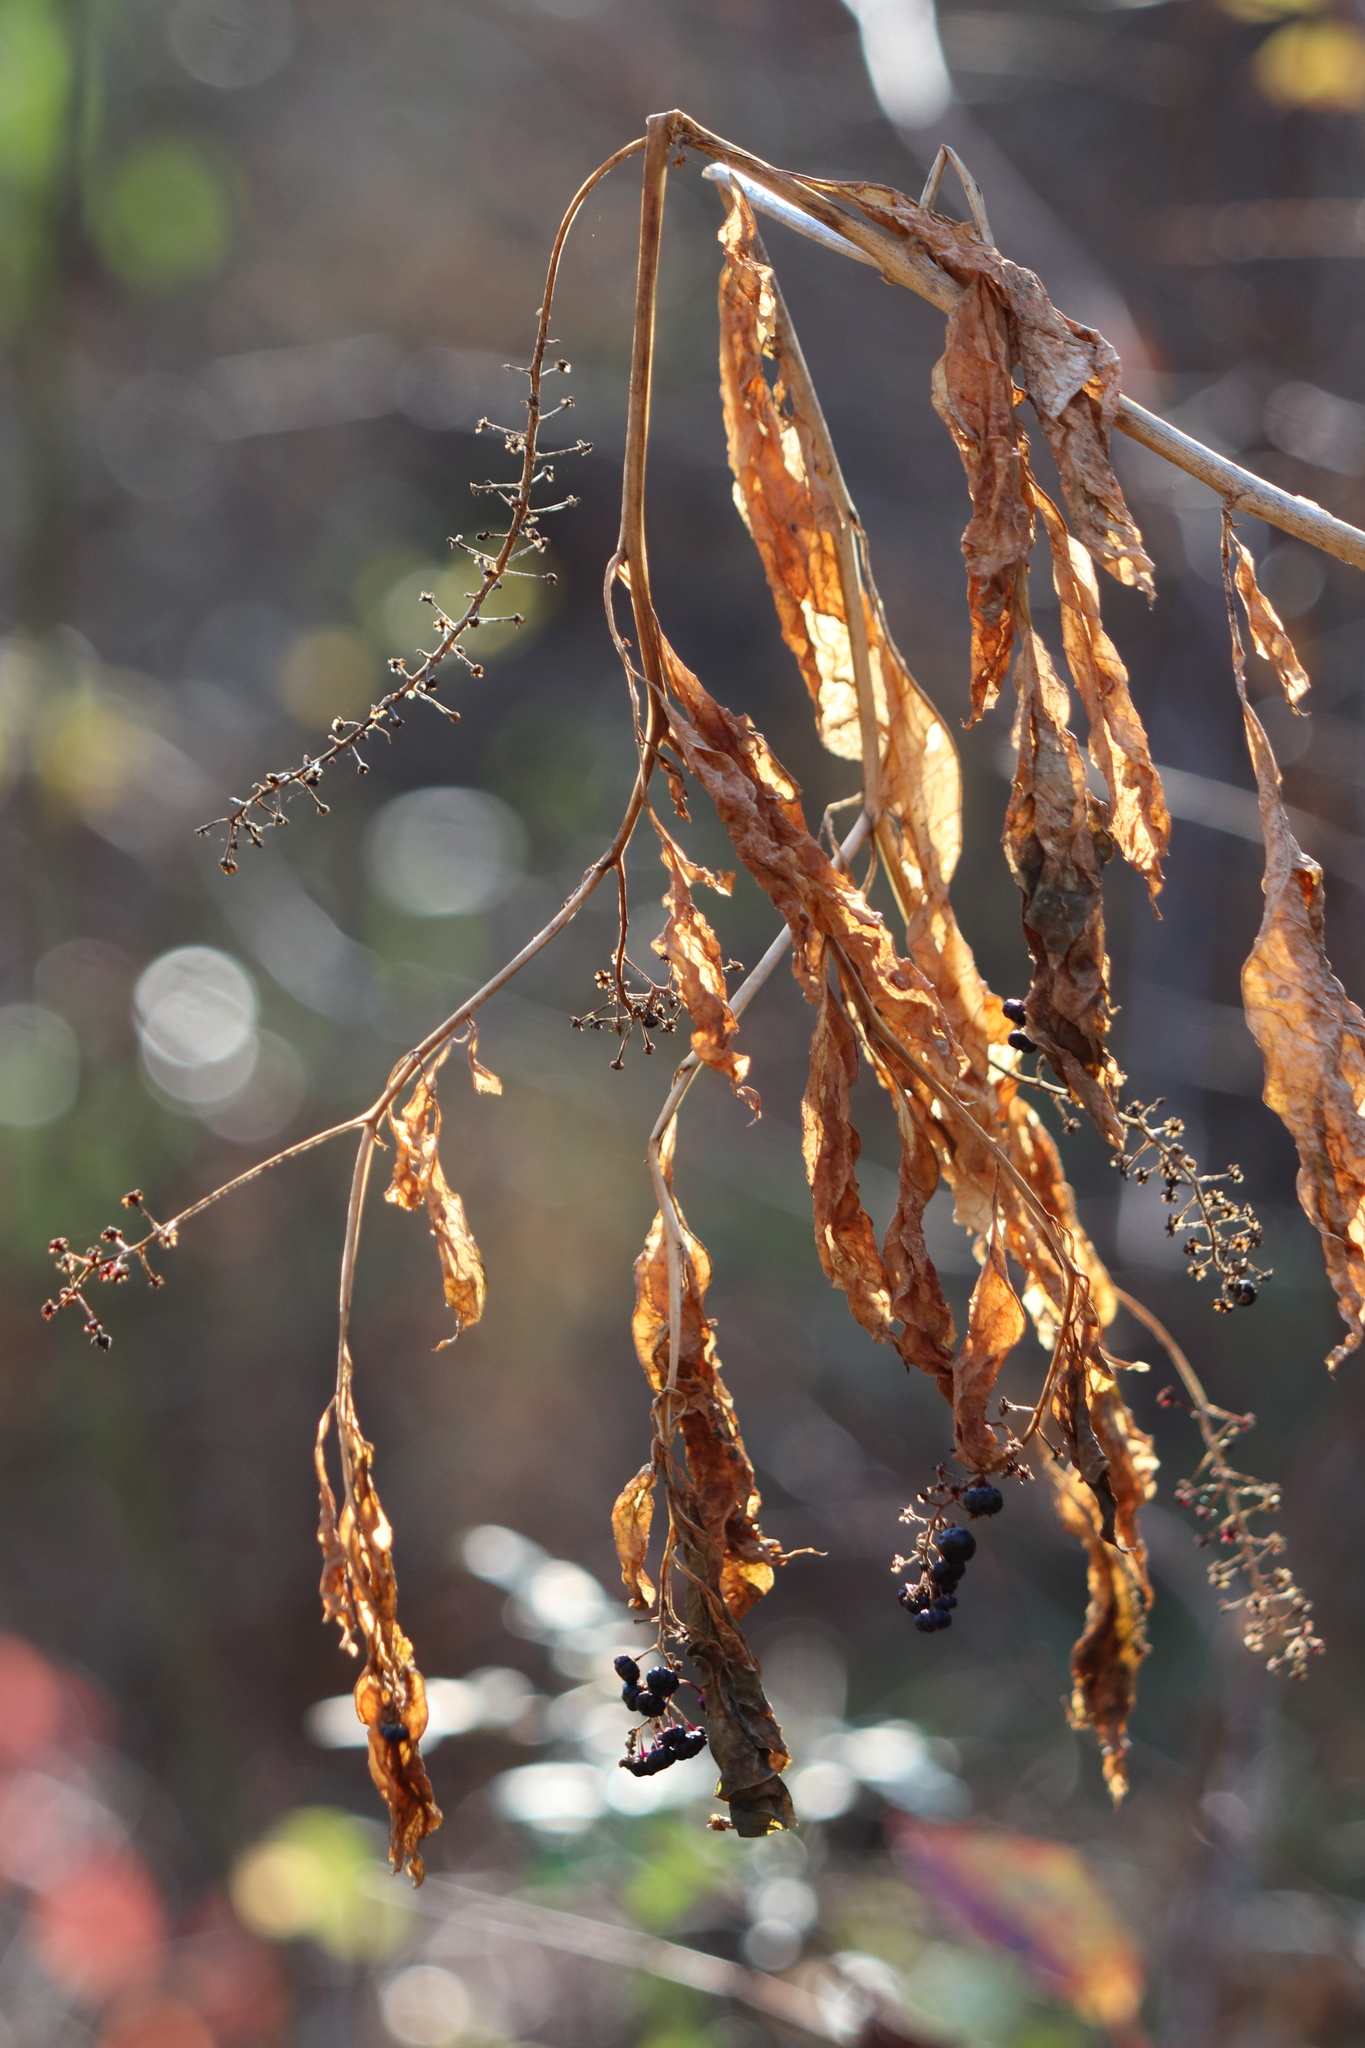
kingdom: Plantae
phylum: Tracheophyta
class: Magnoliopsida
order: Caryophyllales
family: Phytolaccaceae
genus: Phytolacca
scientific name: Phytolacca americana
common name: American pokeweed
